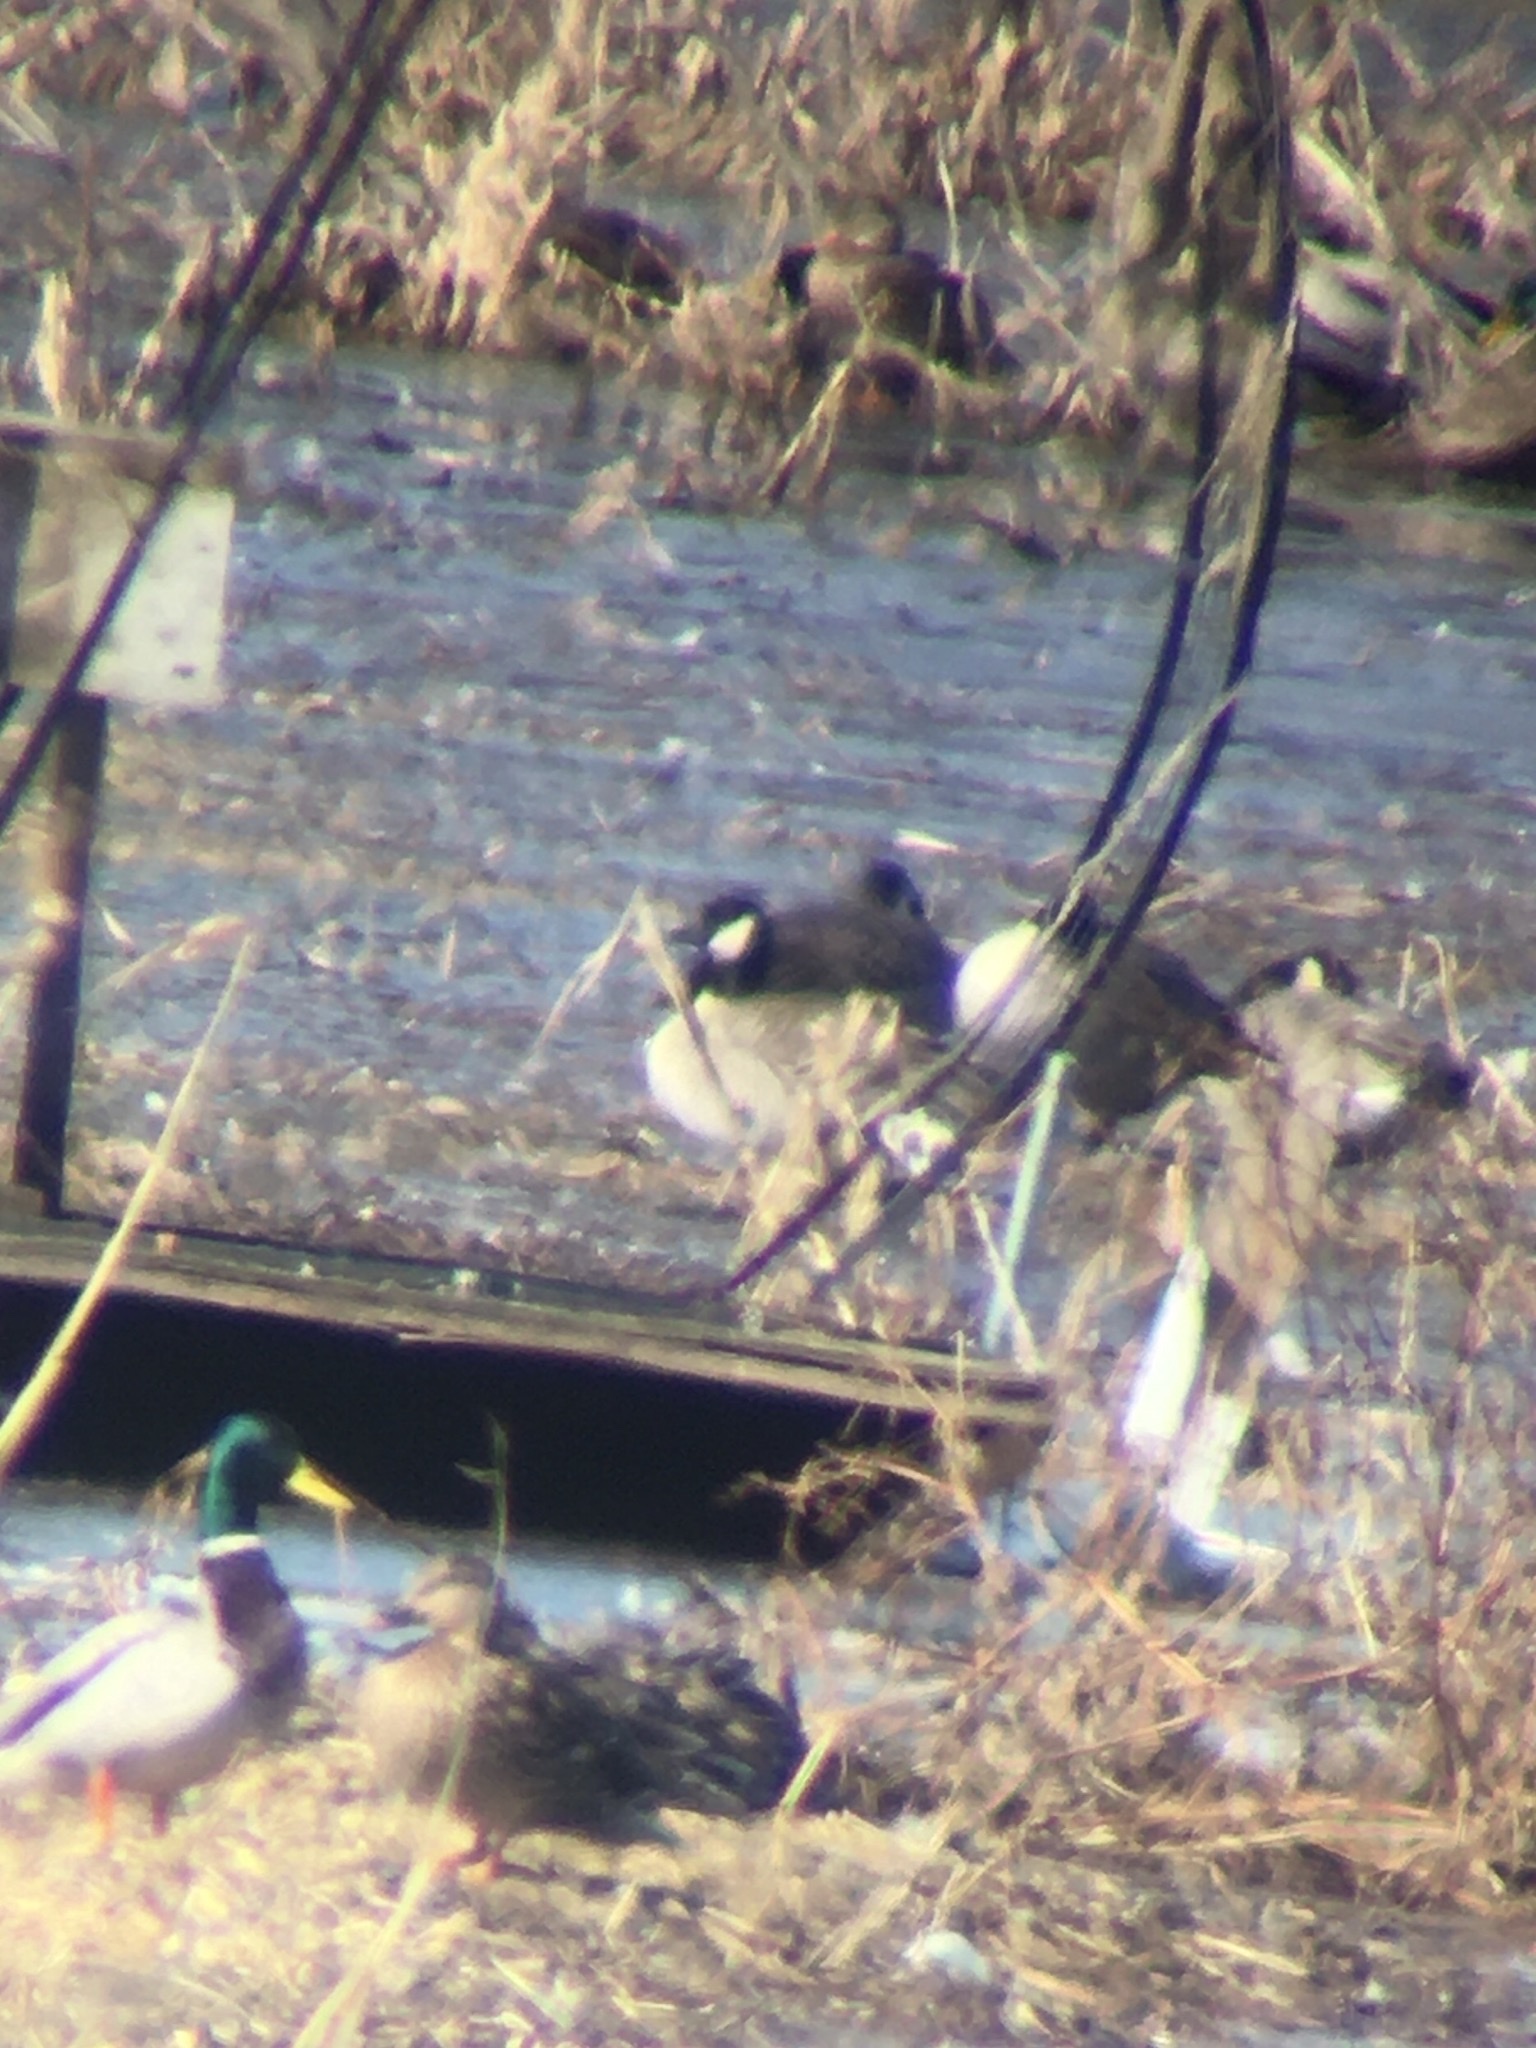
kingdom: Animalia
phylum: Chordata
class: Aves
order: Anseriformes
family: Anatidae
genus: Branta
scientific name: Branta hutchinsii
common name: Cackling goose
